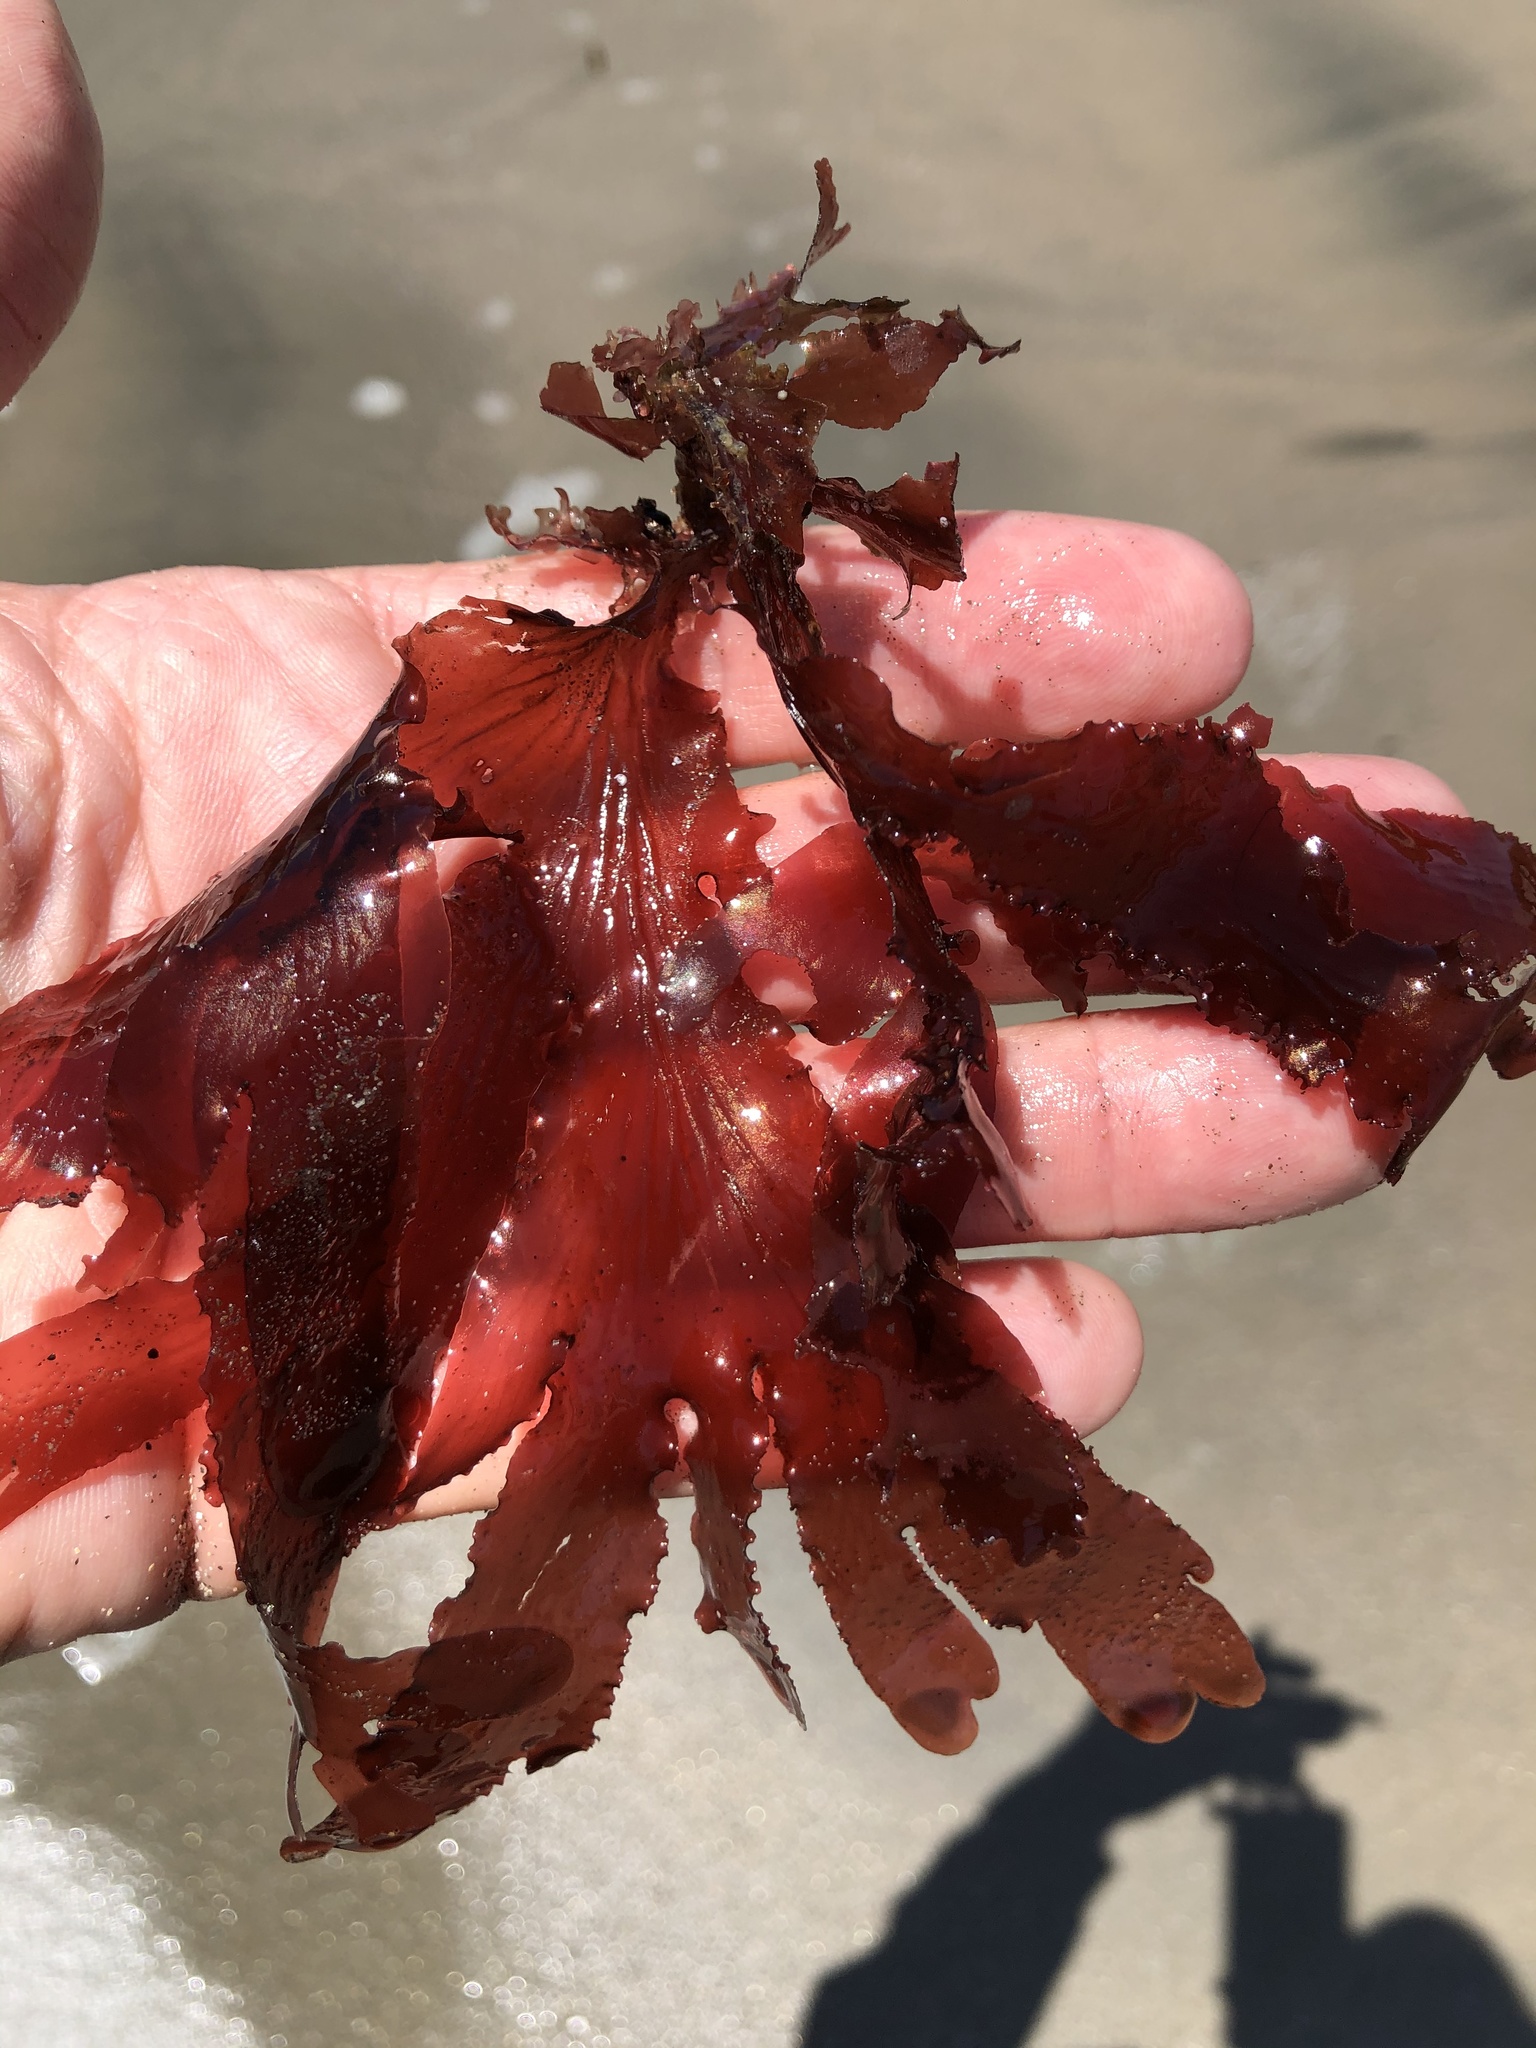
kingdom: Plantae
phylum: Rhodophyta
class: Florideophyceae
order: Ceramiales
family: Delesseriaceae
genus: Cryptopleura
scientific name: Cryptopleura ruprechtiana
